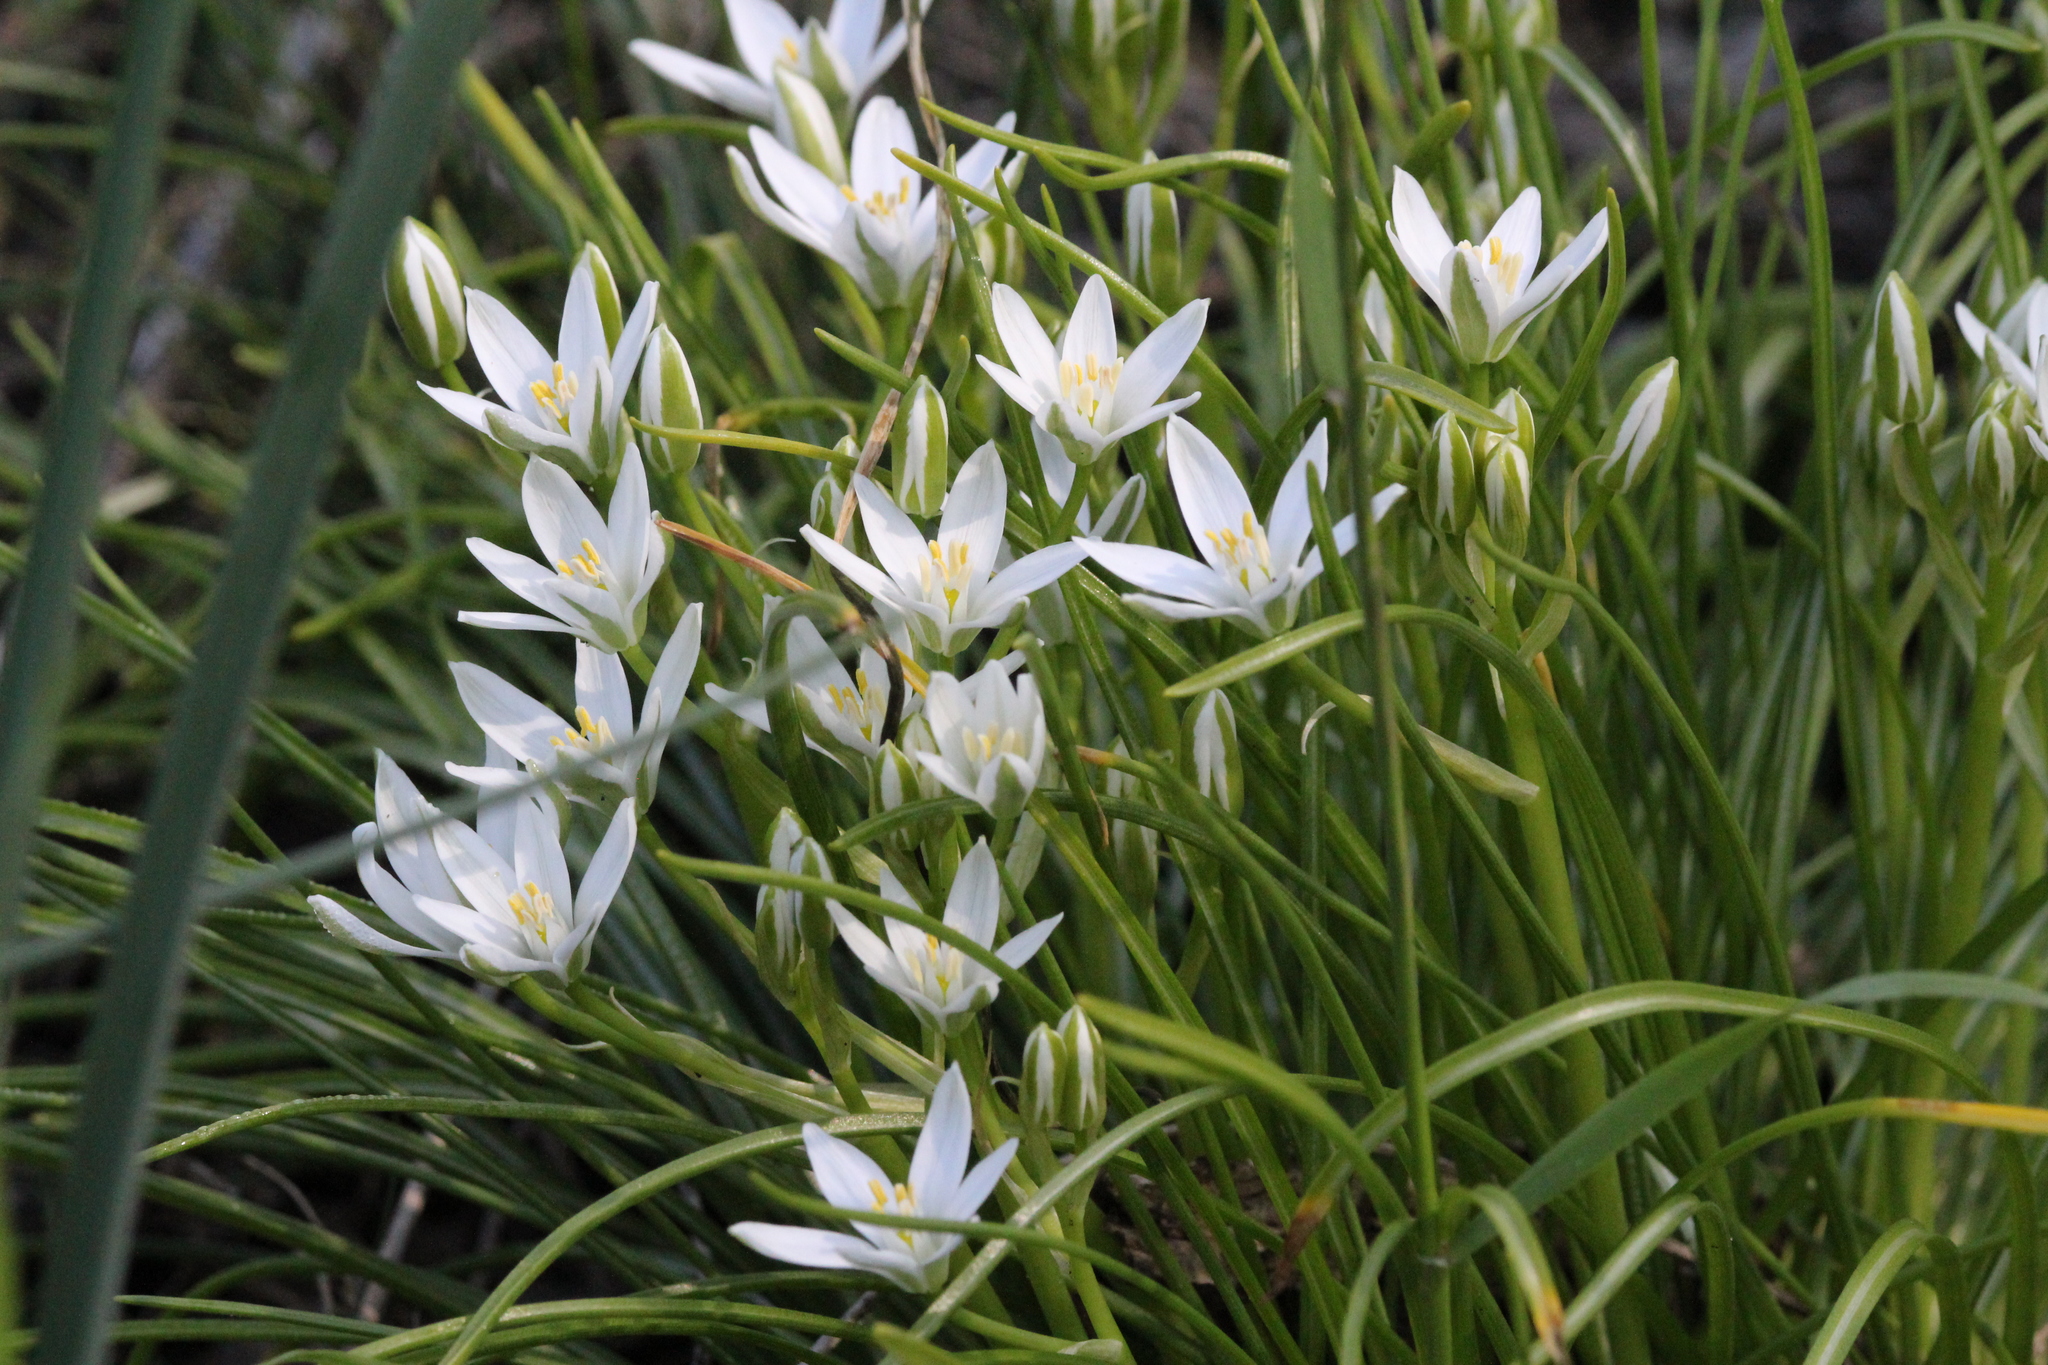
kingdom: Plantae
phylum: Tracheophyta
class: Liliopsida
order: Asparagales
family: Asparagaceae
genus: Ornithogalum
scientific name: Ornithogalum umbellatum
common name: Garden star-of-bethlehem
